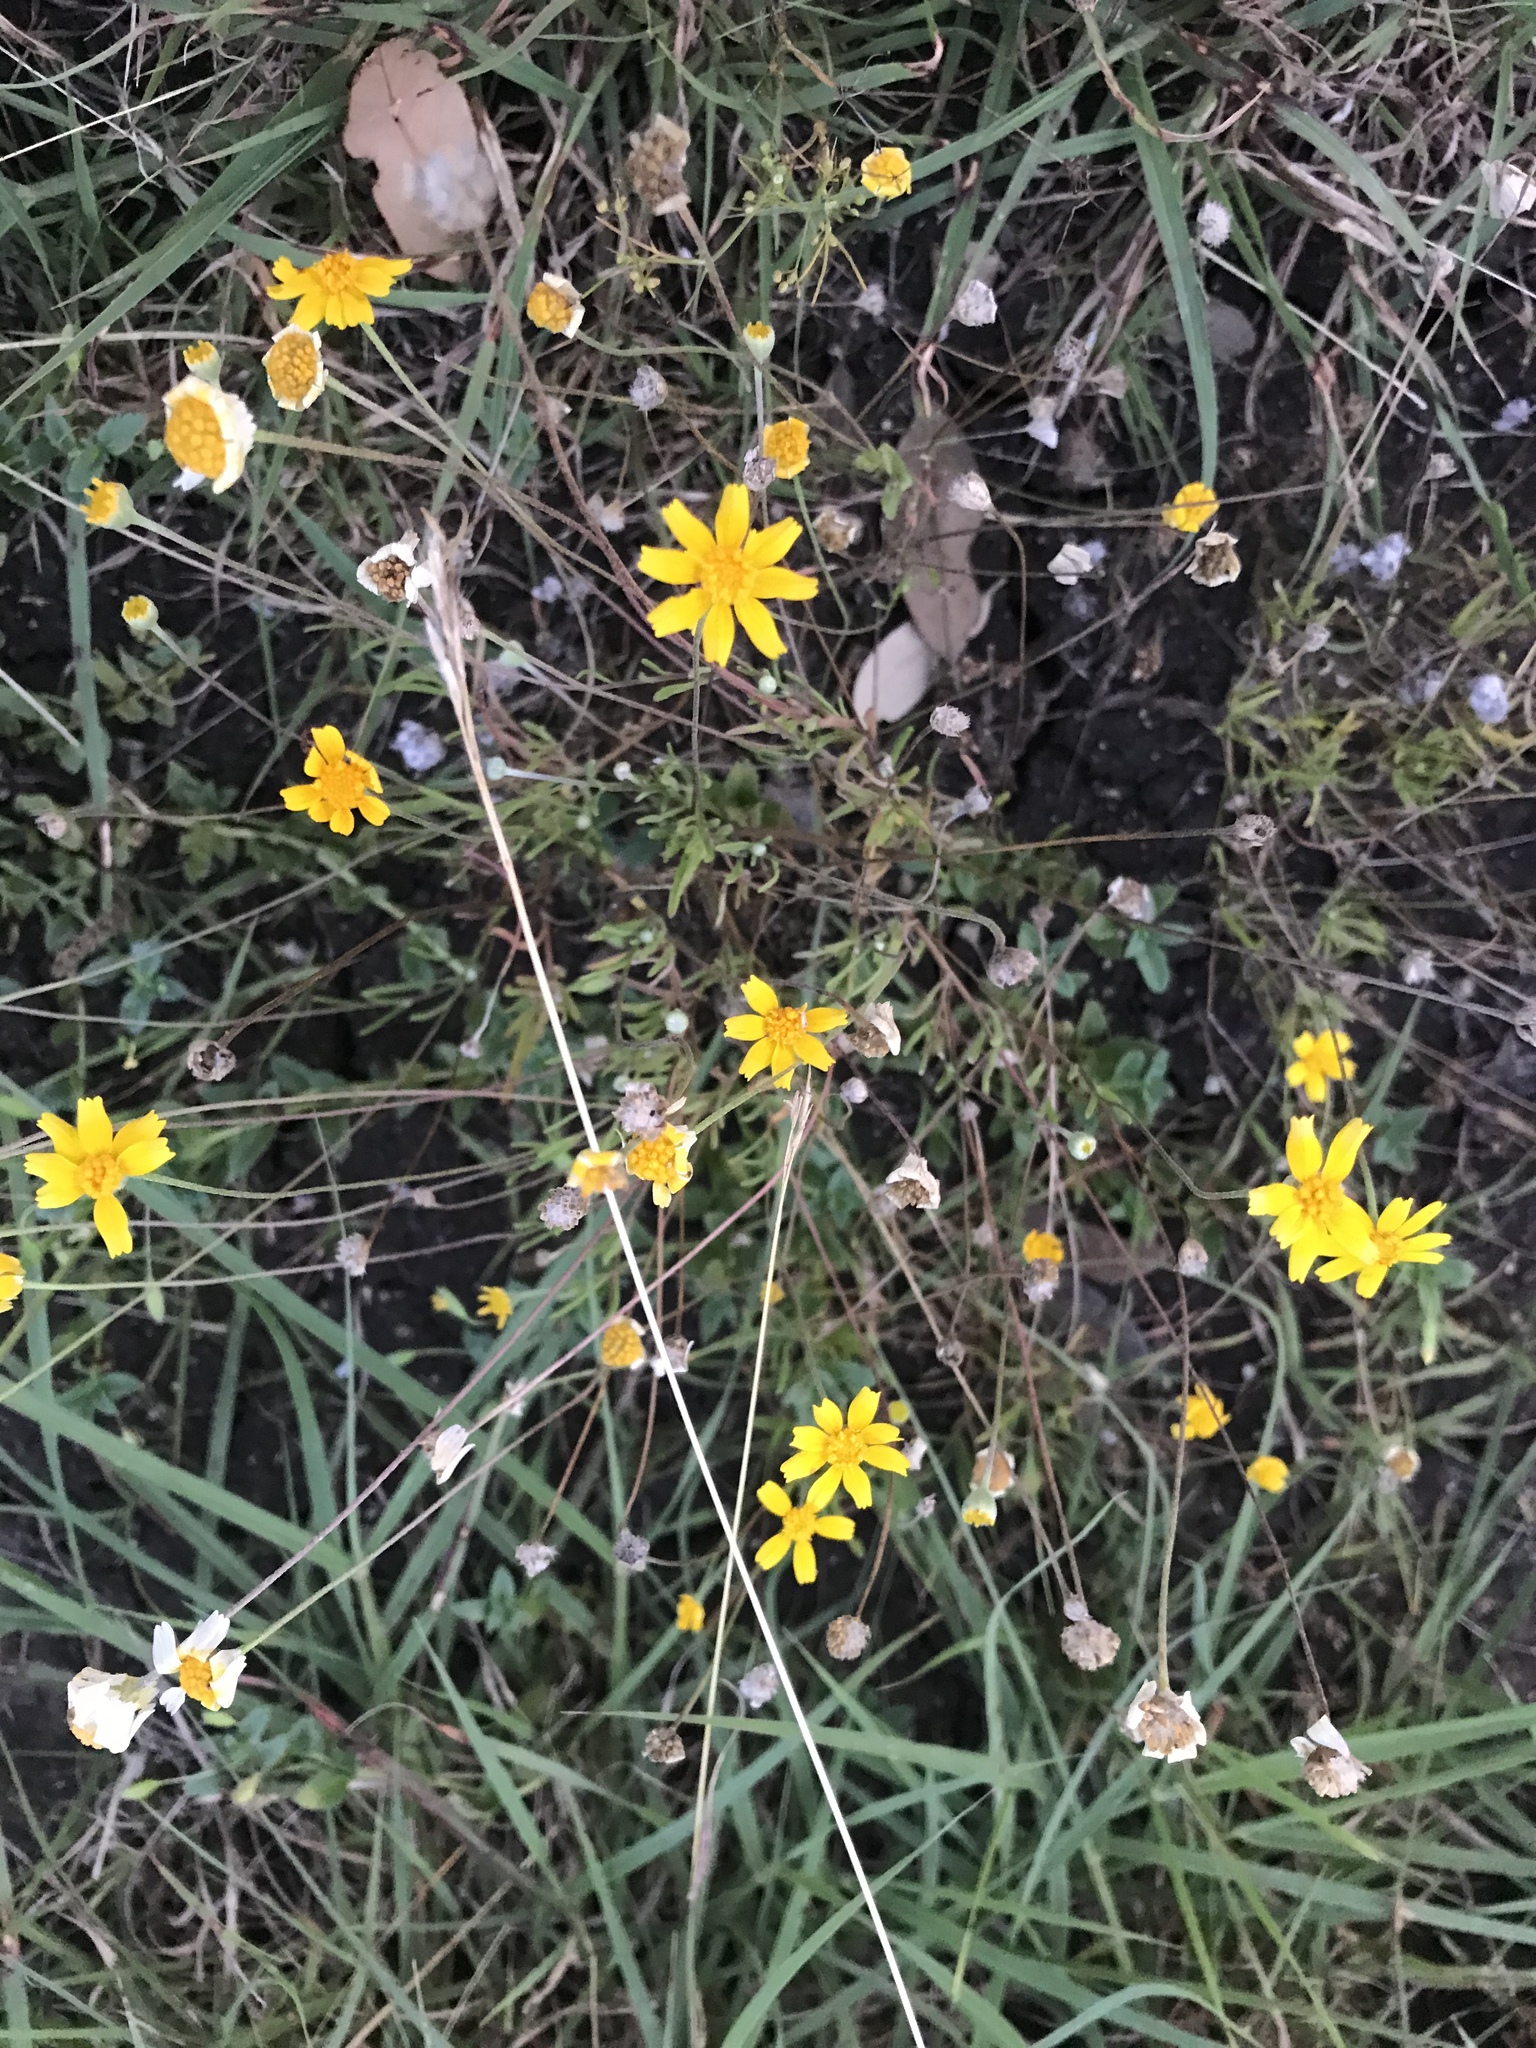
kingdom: Plantae
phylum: Tracheophyta
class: Magnoliopsida
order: Asterales
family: Asteraceae
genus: Tetraneuris
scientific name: Tetraneuris linearifolia
